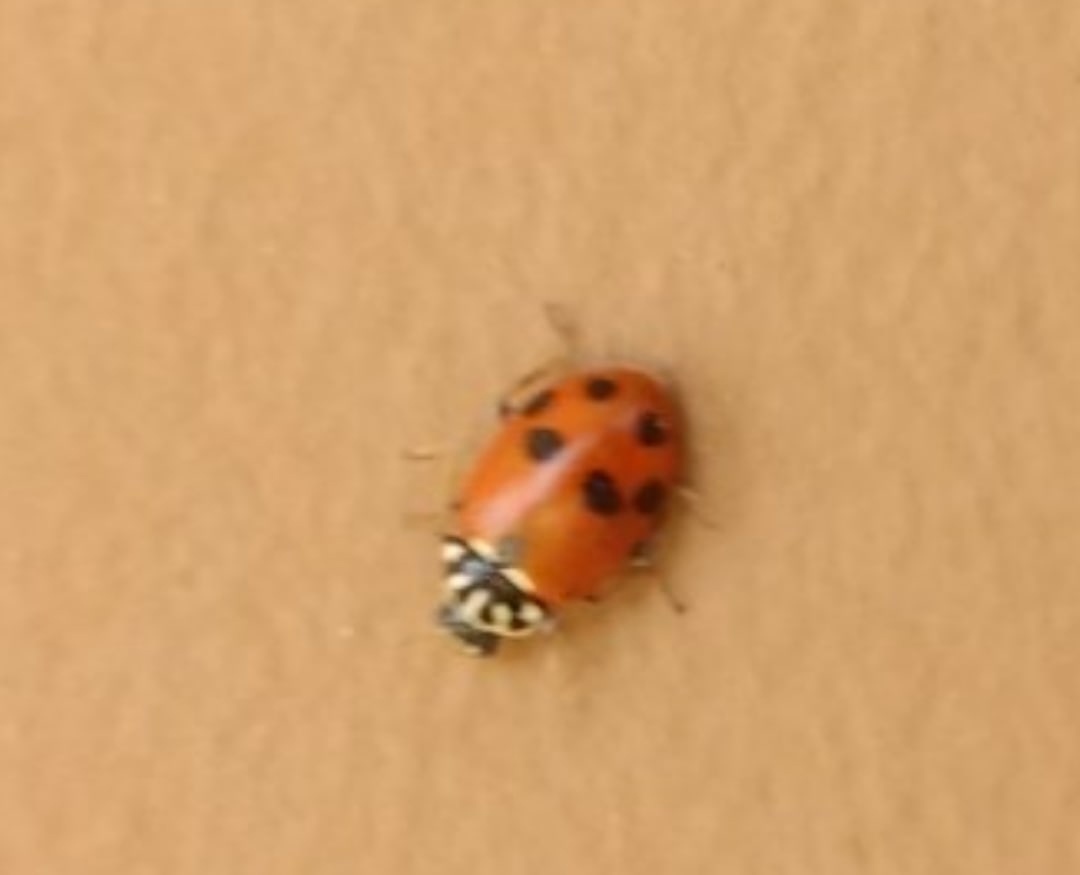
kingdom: Animalia
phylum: Arthropoda
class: Insecta
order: Coleoptera
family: Coccinellidae
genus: Hippodamia
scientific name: Hippodamia variegata
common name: Ladybird beetle
